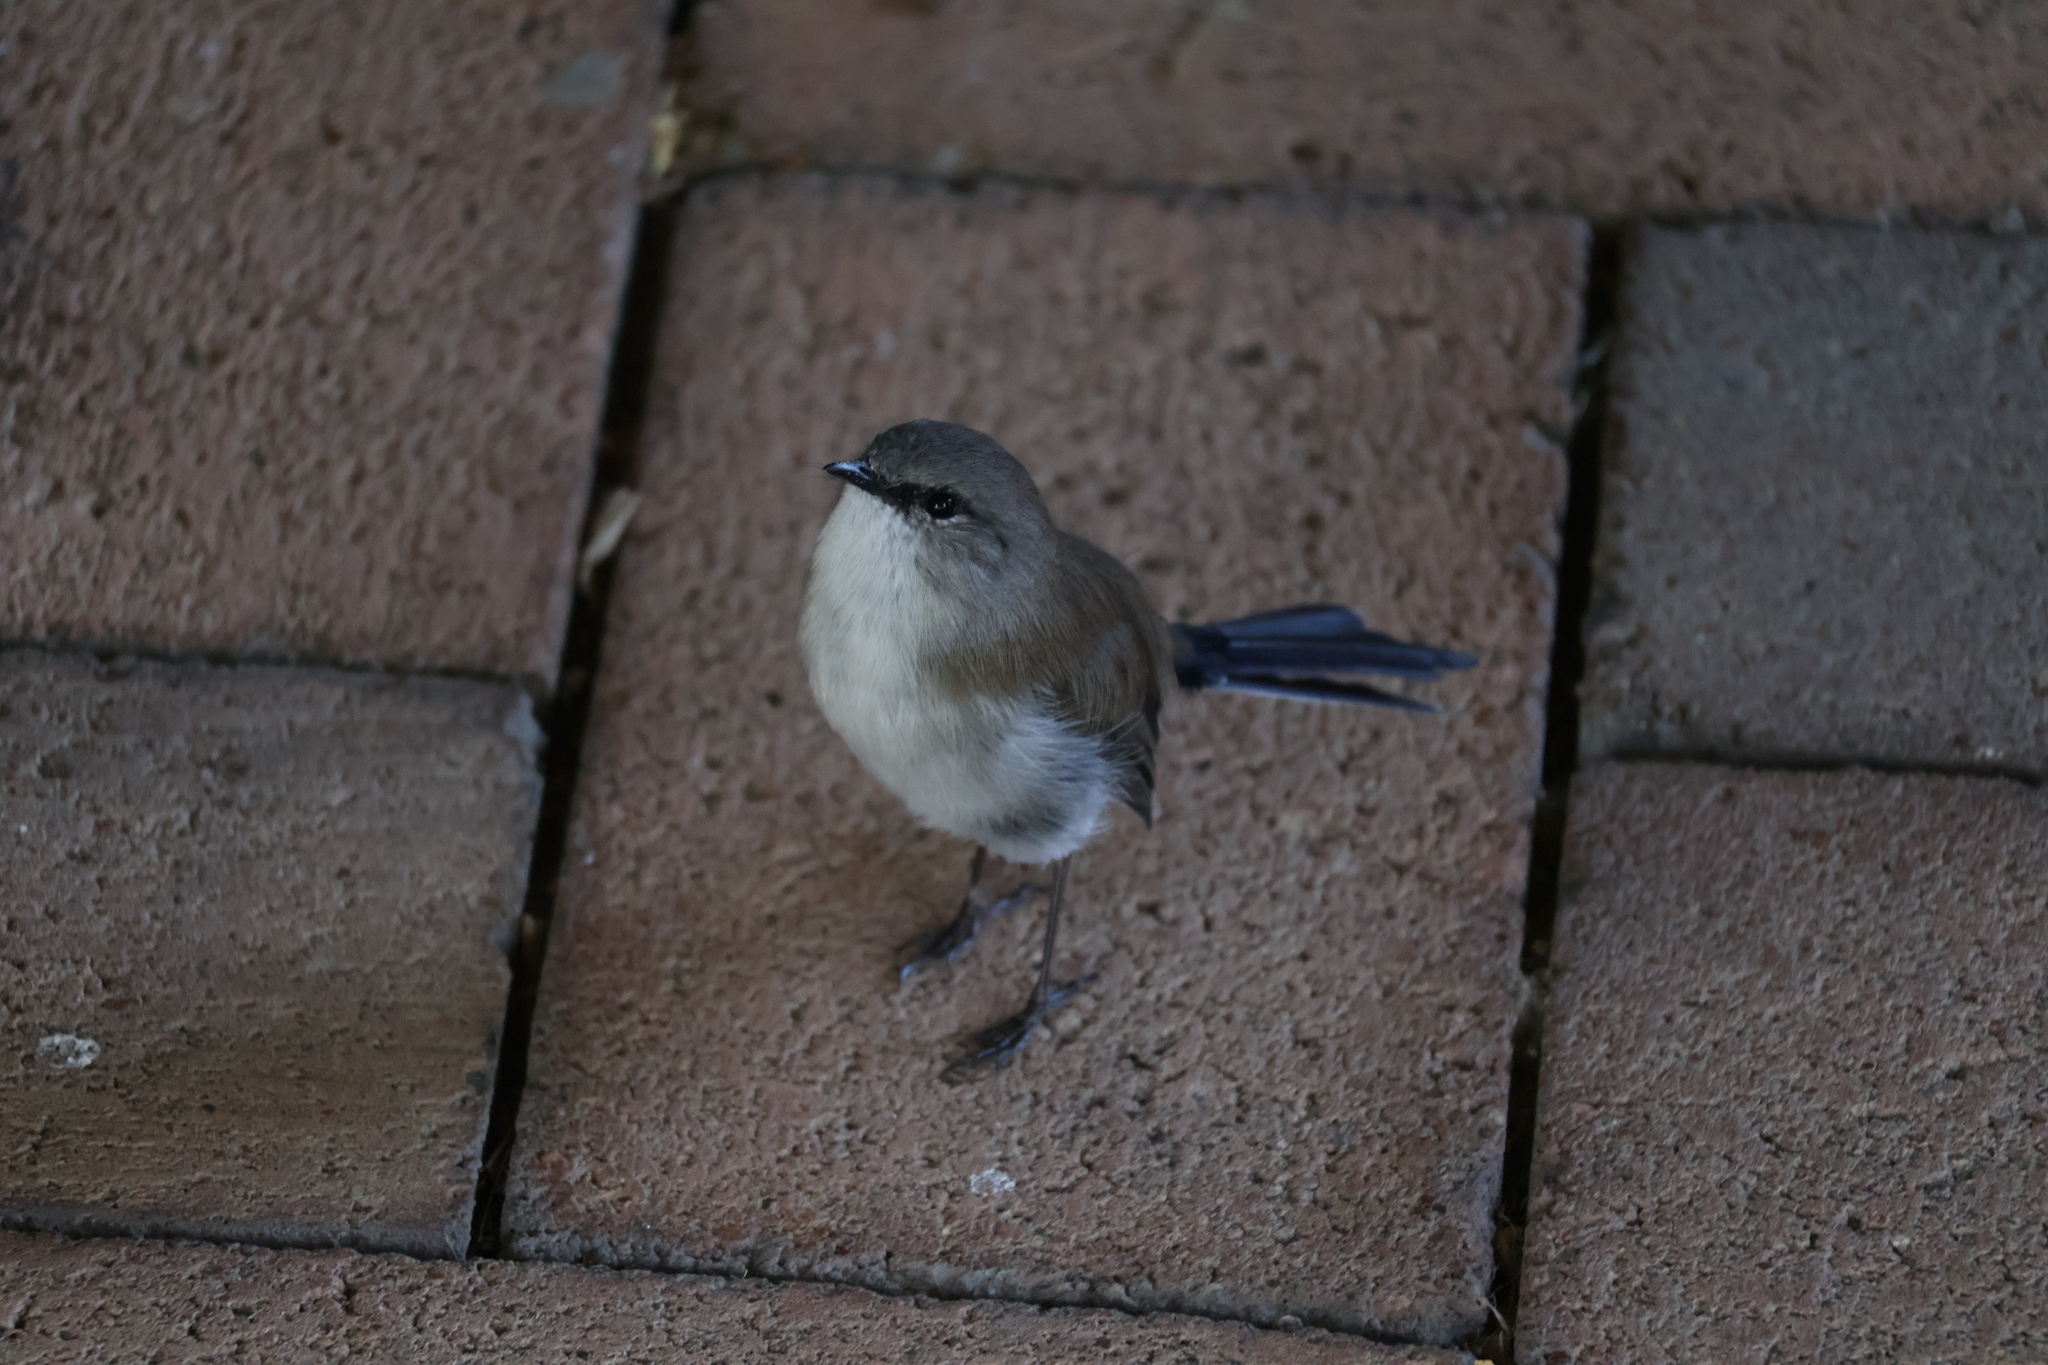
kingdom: Animalia
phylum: Chordata
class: Aves
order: Passeriformes
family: Maluridae
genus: Malurus
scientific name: Malurus cyaneus
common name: Superb fairywren
